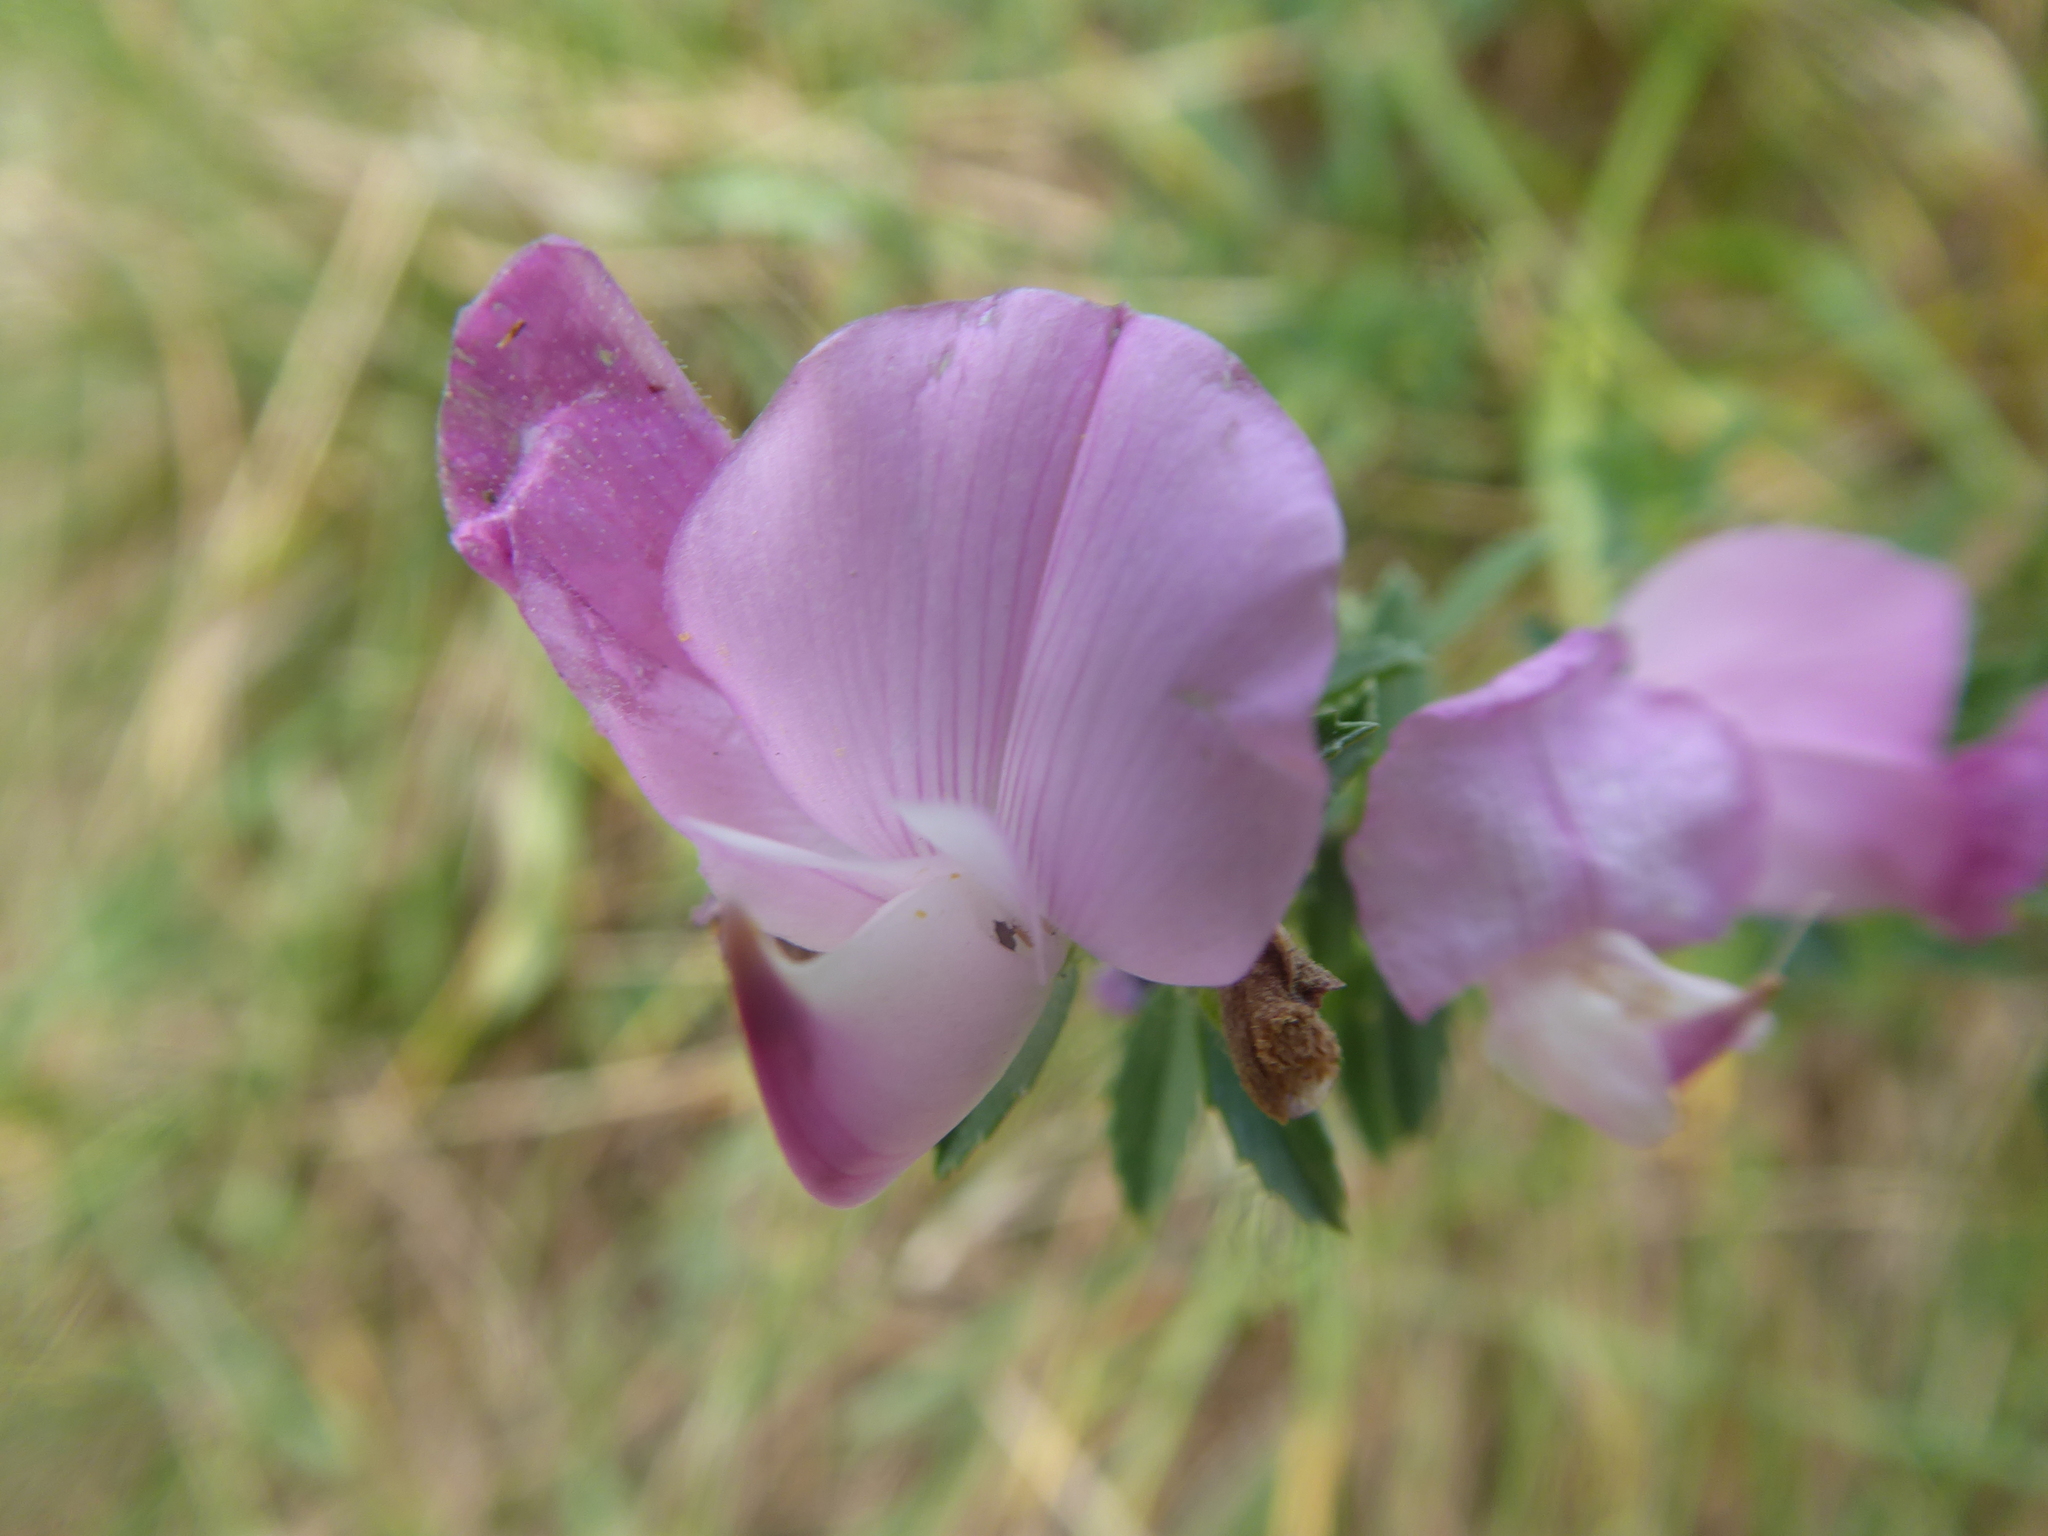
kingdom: Plantae
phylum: Tracheophyta
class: Magnoliopsida
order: Fabales
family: Fabaceae
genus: Ononis
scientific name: Ononis spinosa
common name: Spiny restharrow
